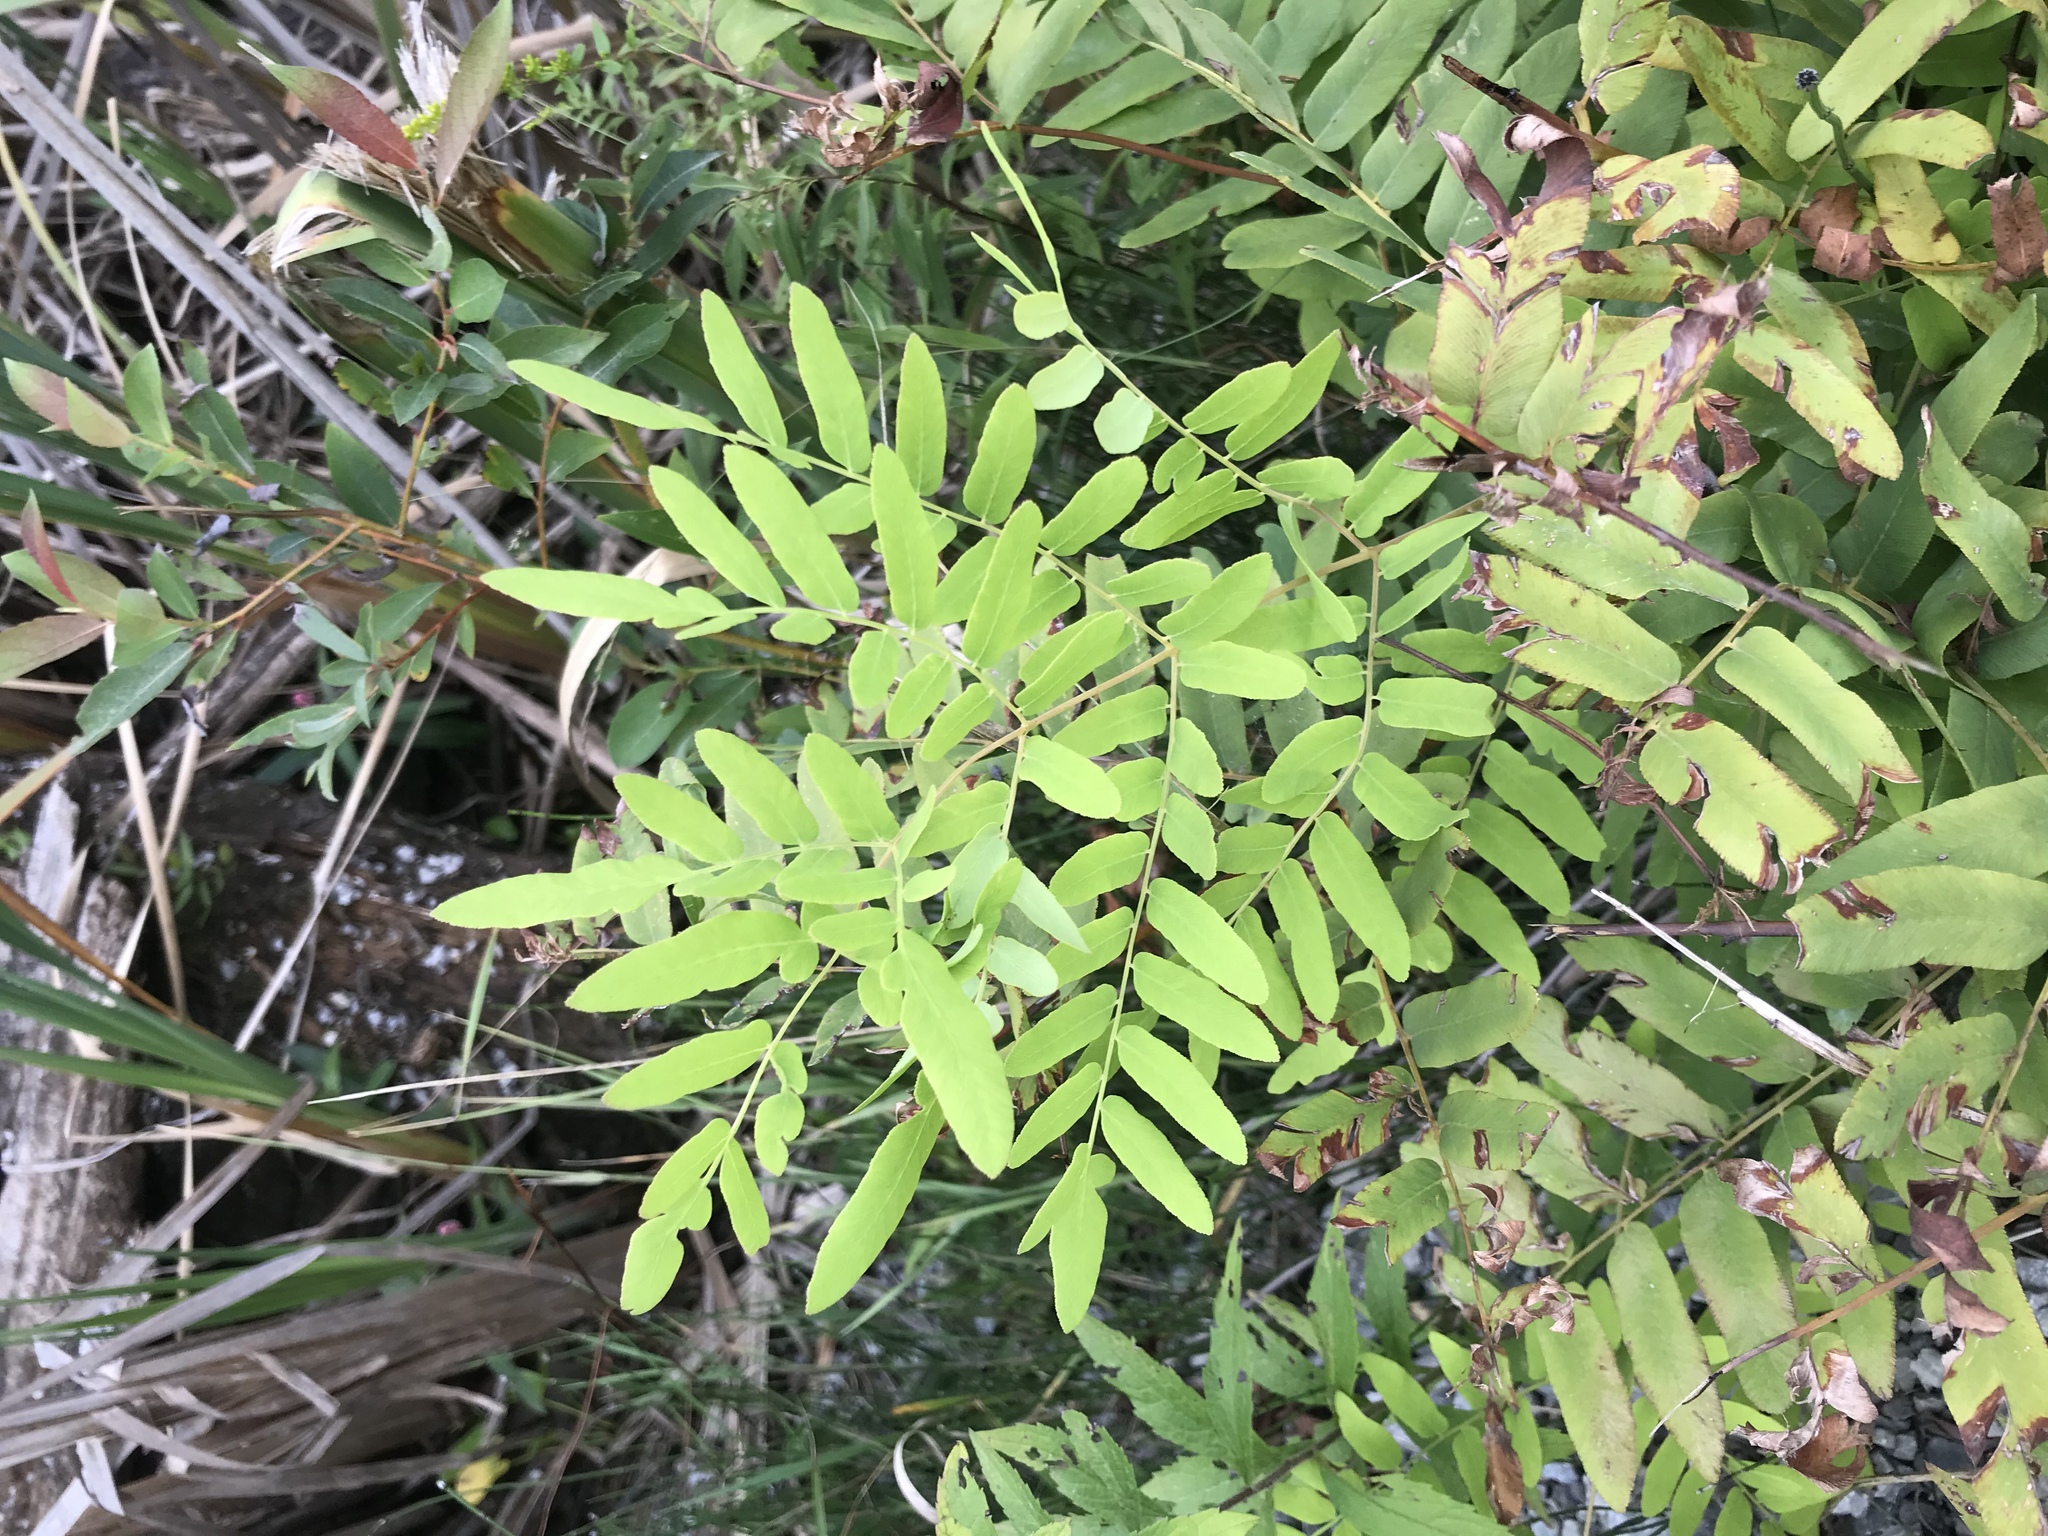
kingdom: Plantae
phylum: Tracheophyta
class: Polypodiopsida
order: Osmundales
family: Osmundaceae
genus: Osmunda
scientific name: Osmunda spectabilis
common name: American royal fern
